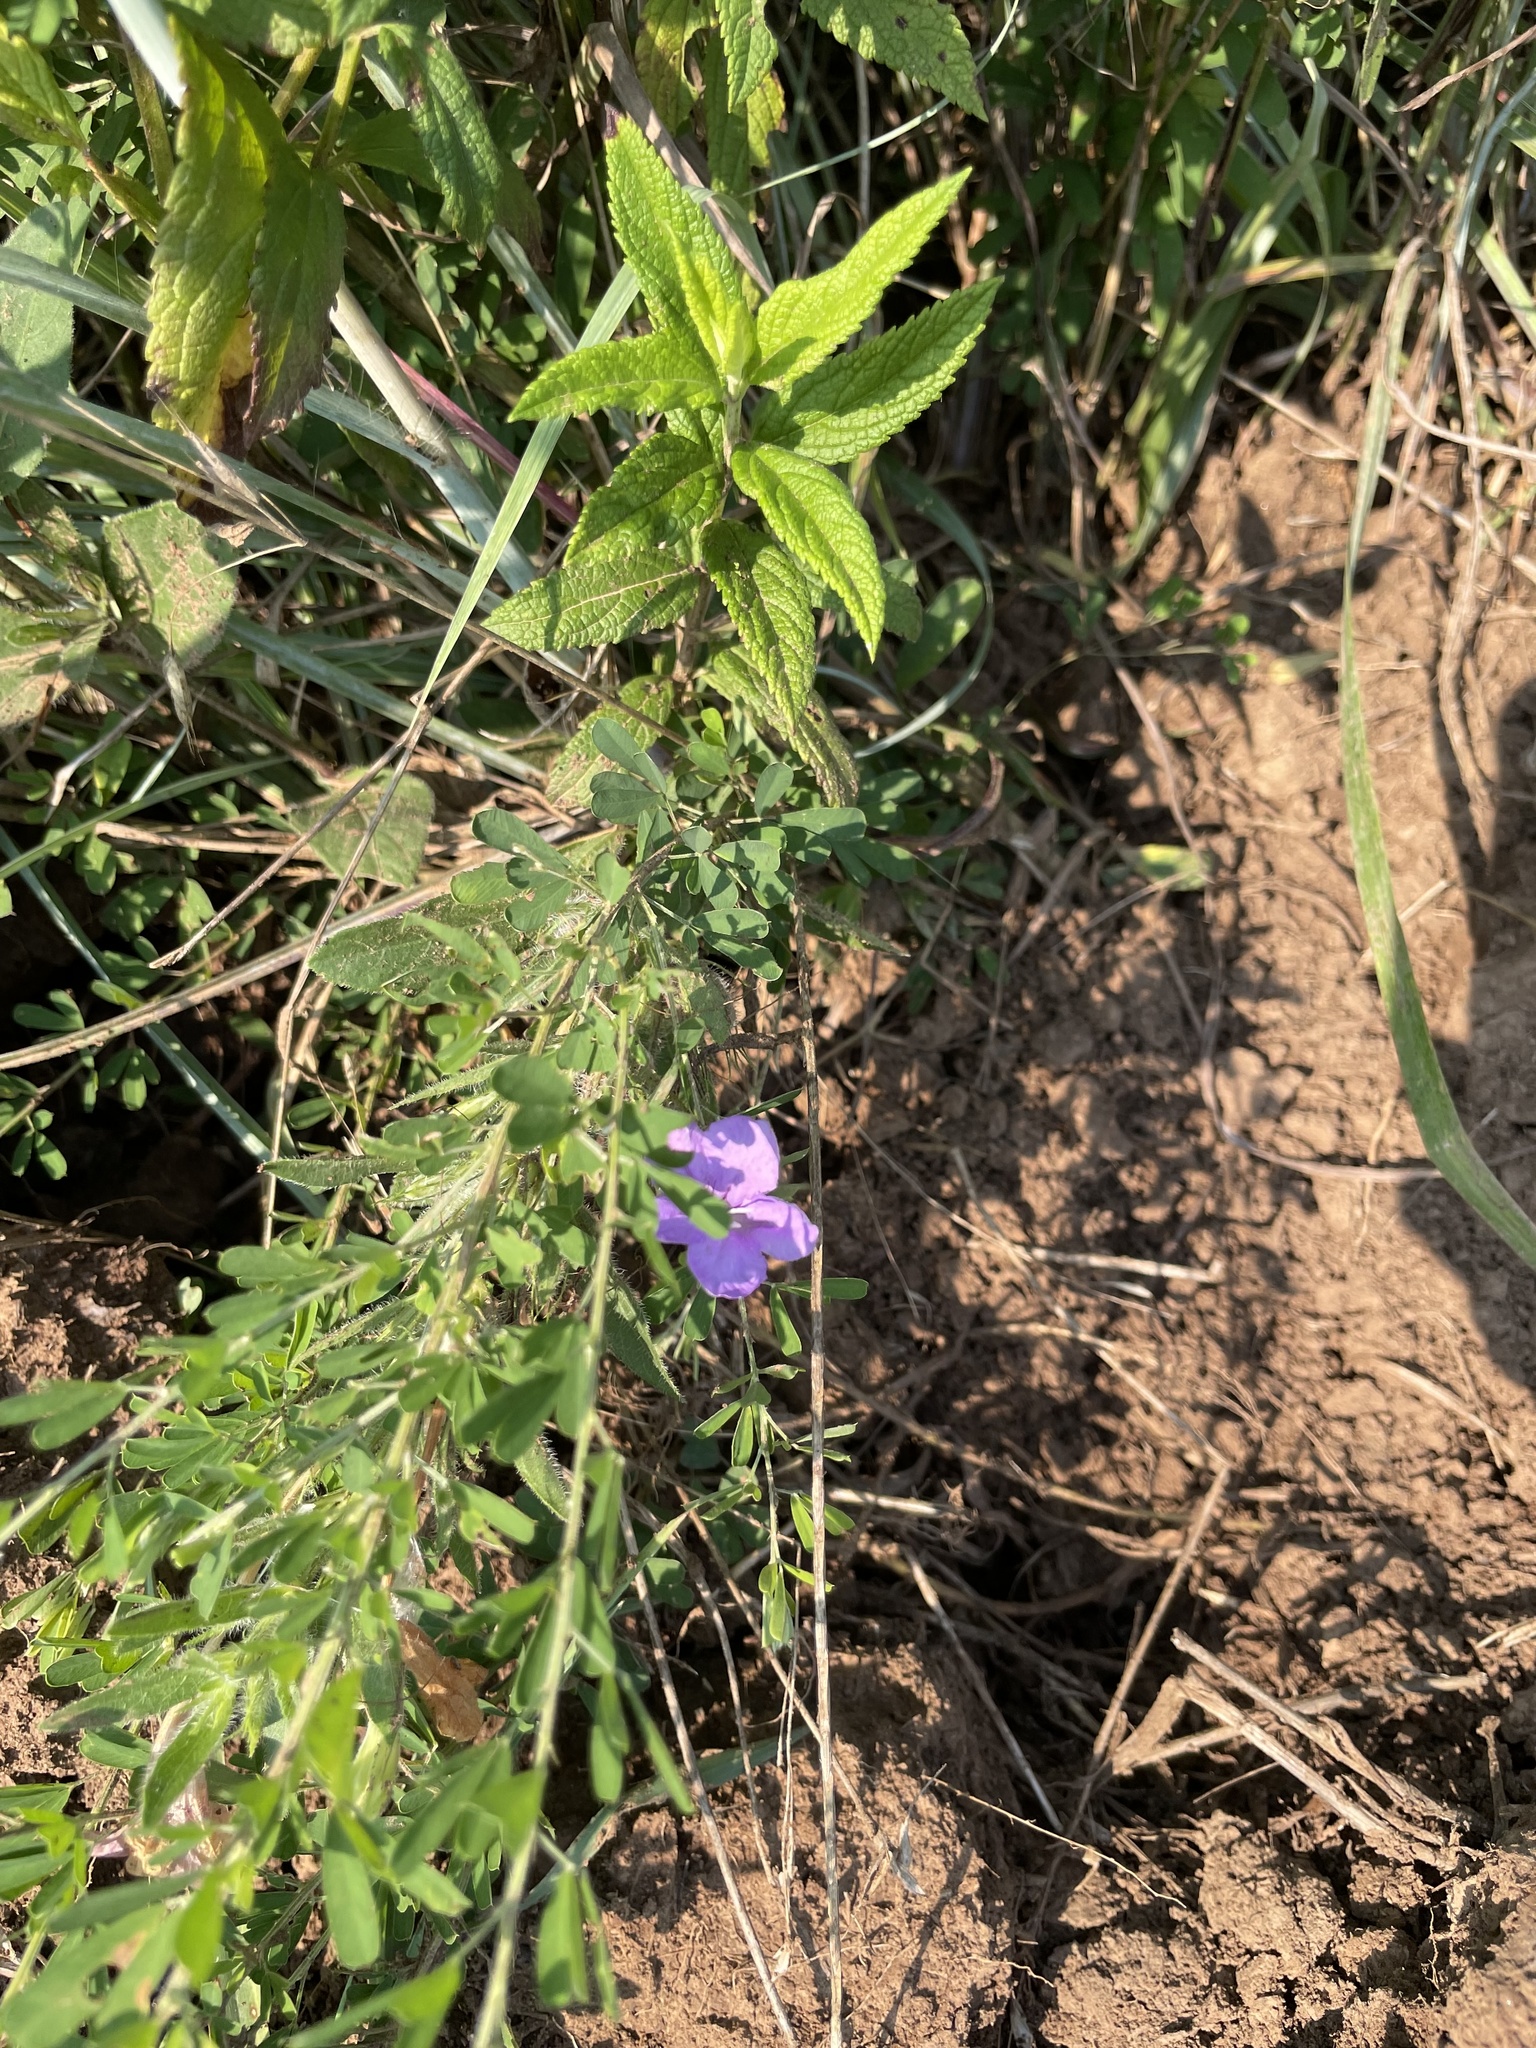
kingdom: Plantae
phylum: Tracheophyta
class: Magnoliopsida
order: Lamiales
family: Acanthaceae
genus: Ruellia
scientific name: Ruellia humilis
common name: Fringe-leaf ruellia
